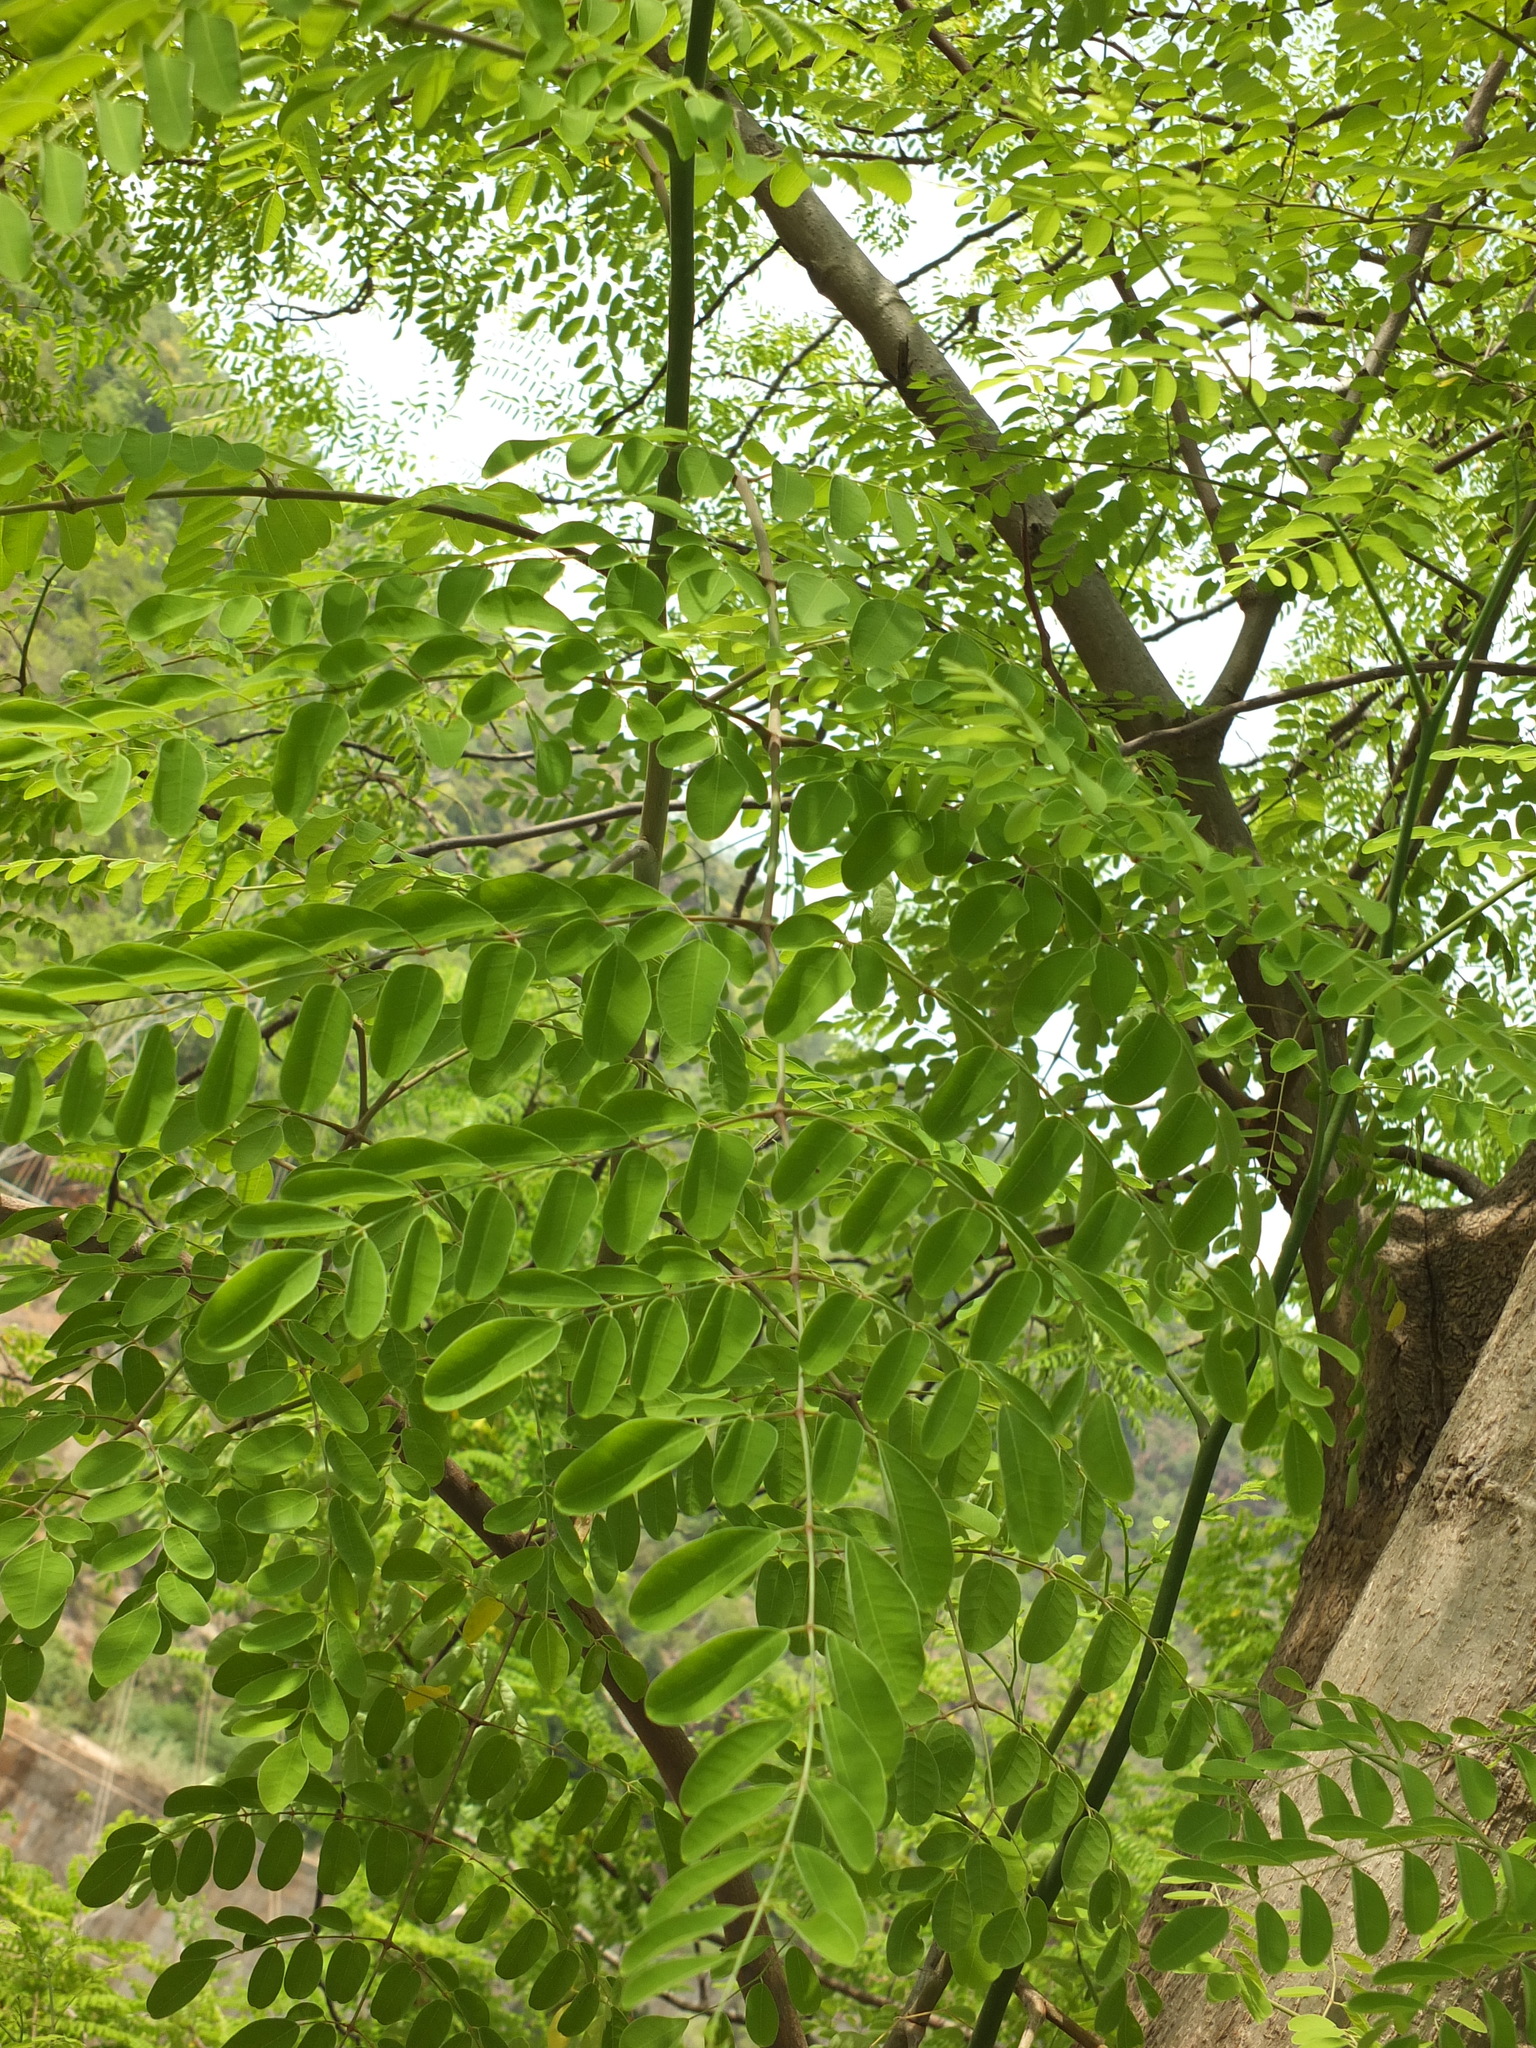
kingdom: Plantae
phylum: Tracheophyta
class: Magnoliopsida
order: Brassicales
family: Moringaceae
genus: Moringa
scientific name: Moringa concanensis
